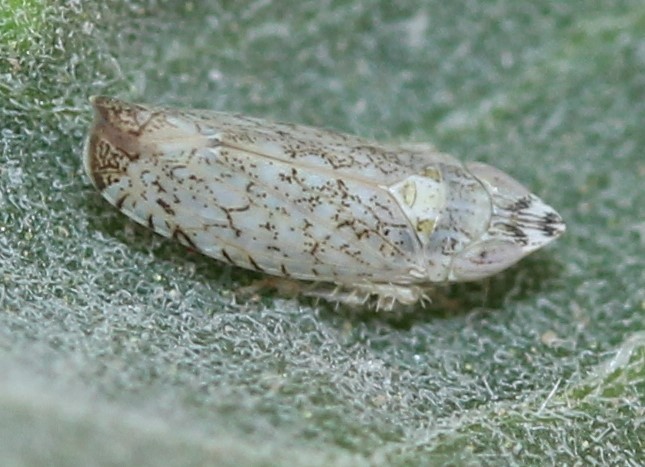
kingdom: Animalia
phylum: Arthropoda
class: Insecta
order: Hemiptera
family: Cicadellidae
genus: Scaphytopius
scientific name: Scaphytopius desertanus
